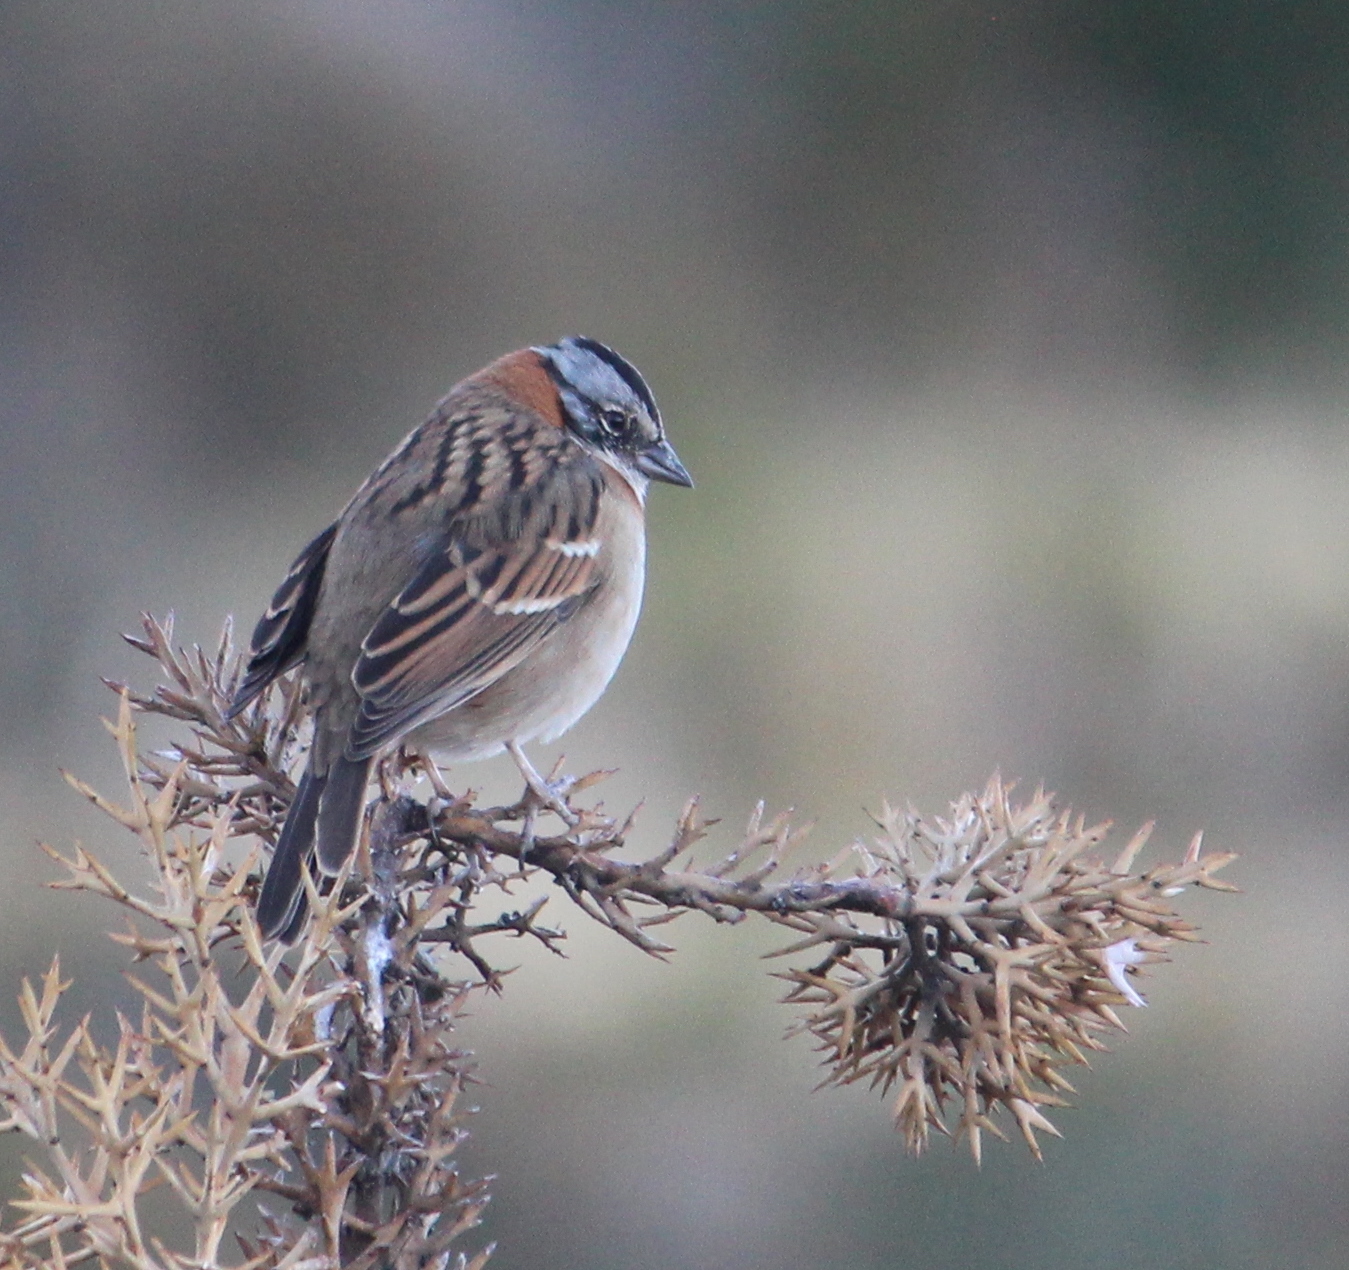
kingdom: Animalia
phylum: Chordata
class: Aves
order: Passeriformes
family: Passerellidae
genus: Zonotrichia
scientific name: Zonotrichia capensis
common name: Rufous-collared sparrow
